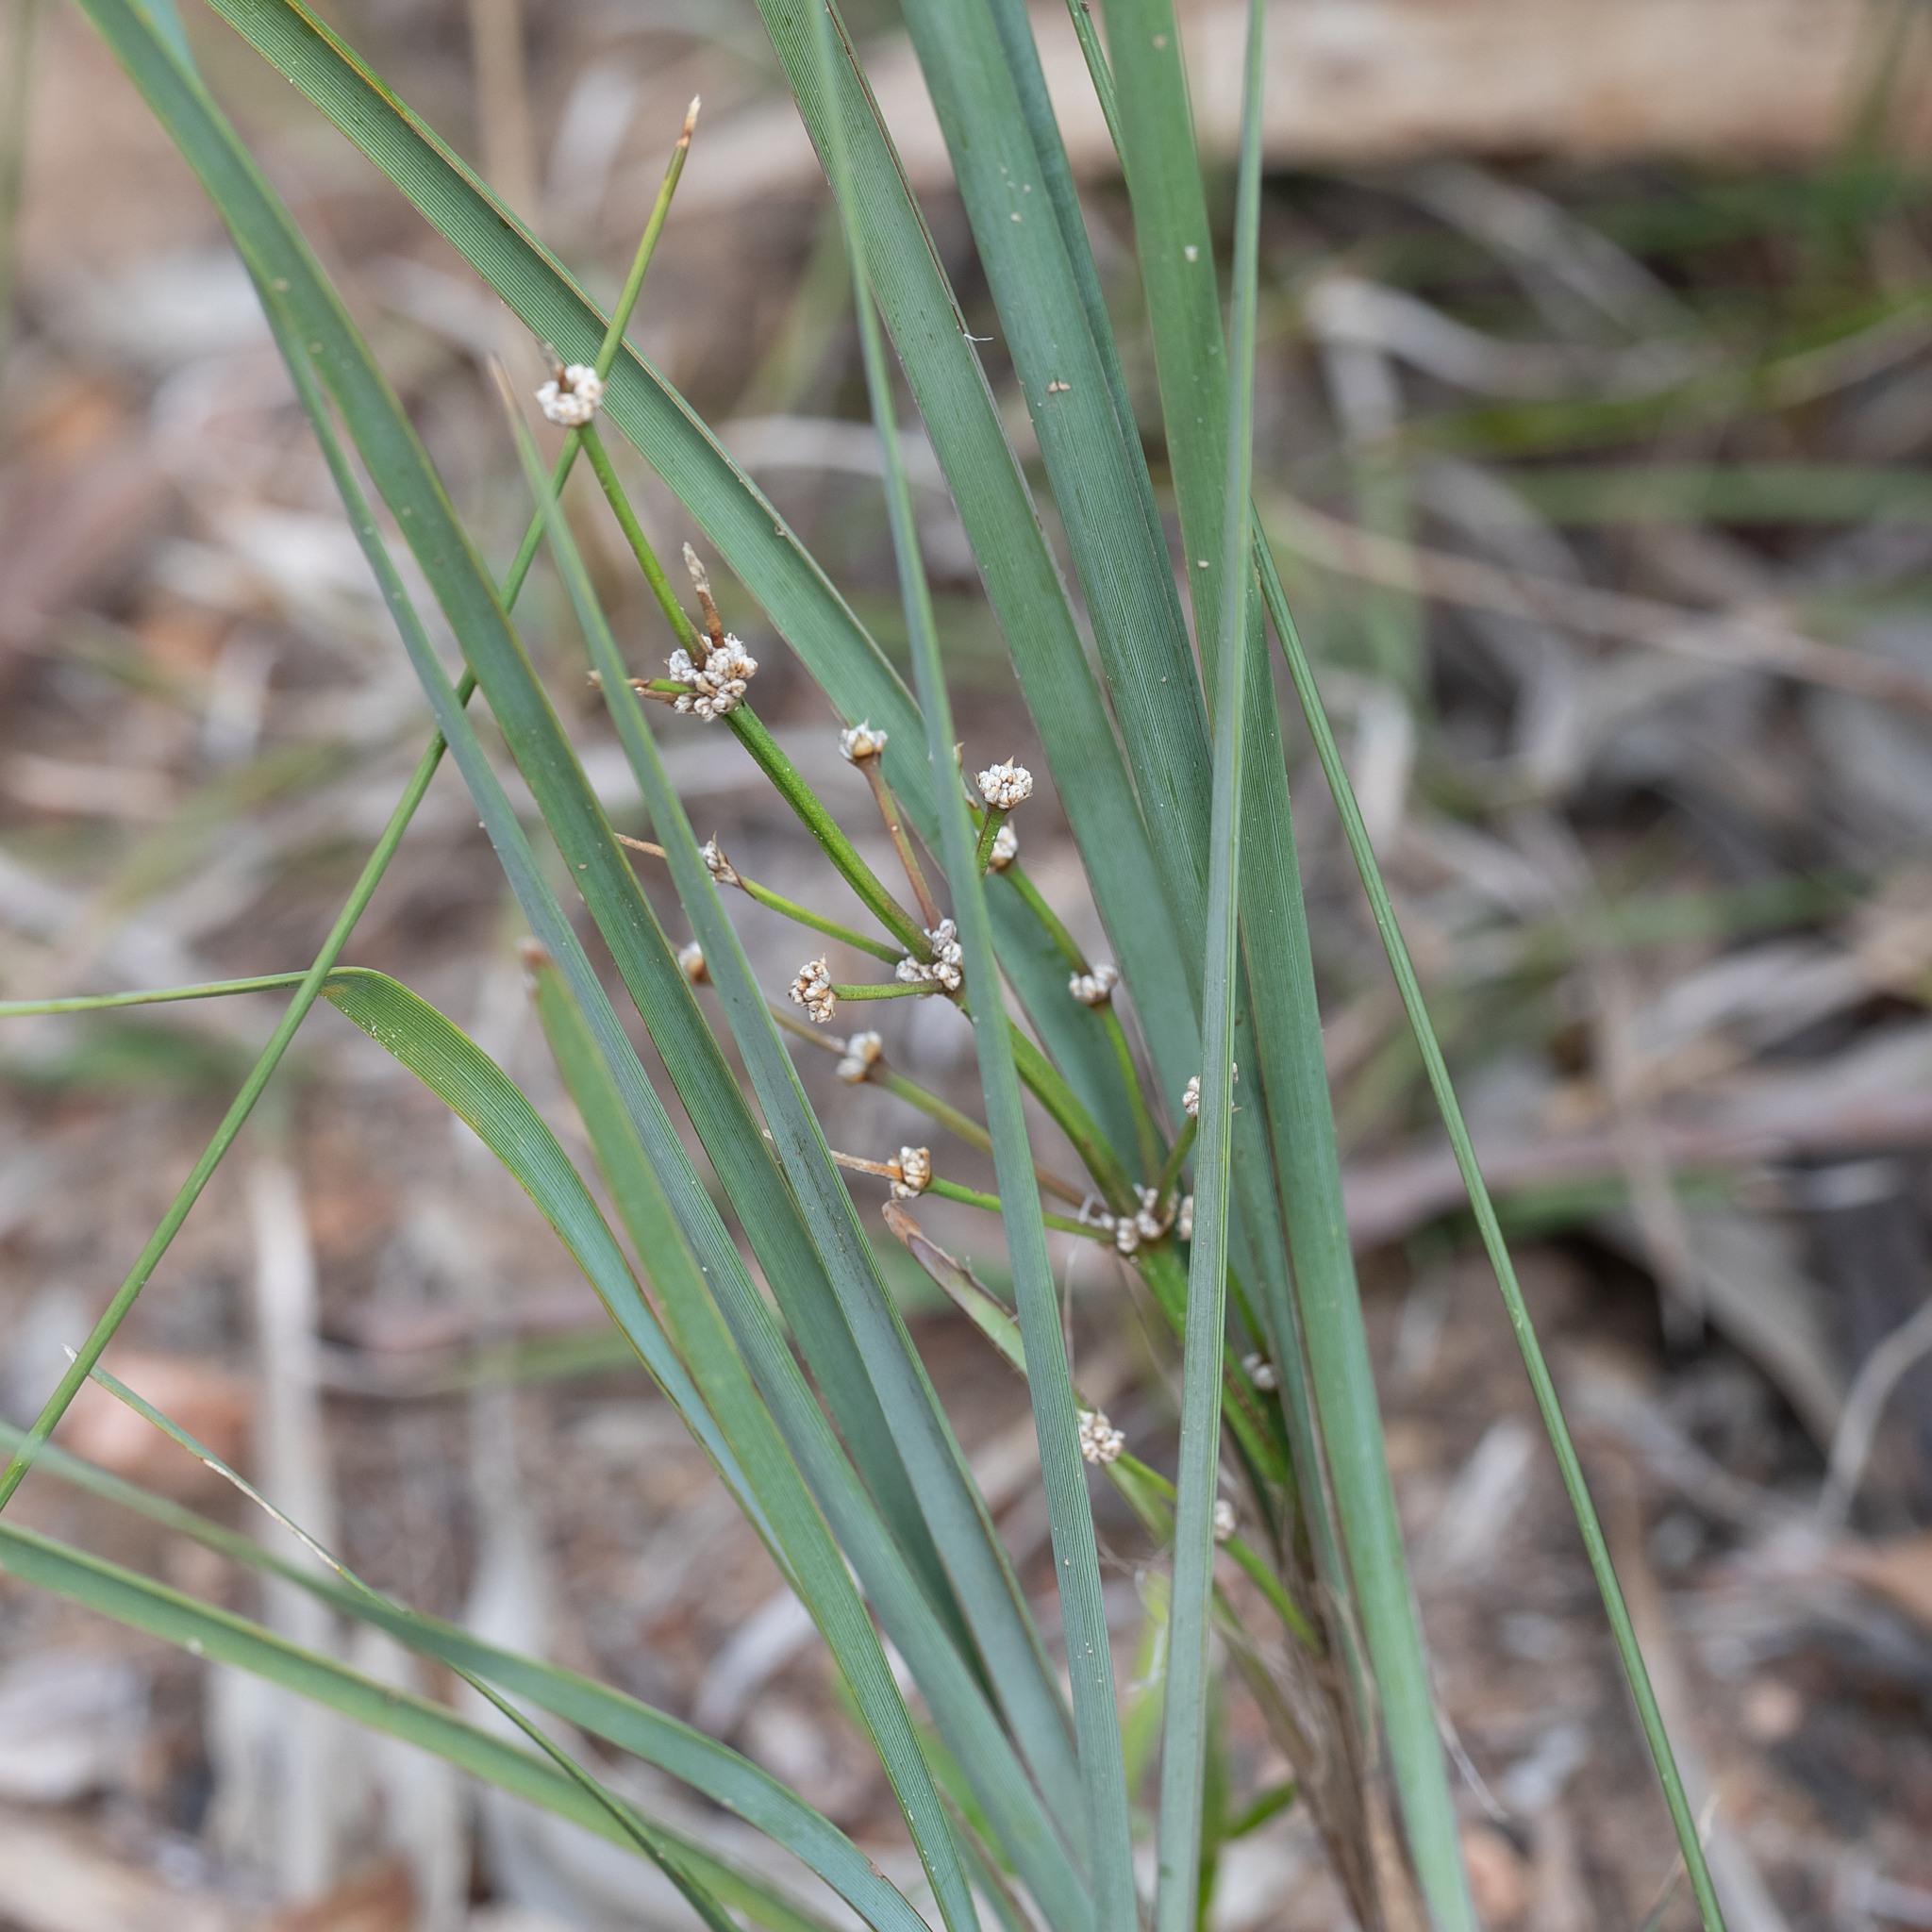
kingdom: Plantae
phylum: Tracheophyta
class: Liliopsida
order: Asparagales
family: Asparagaceae
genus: Lomandra
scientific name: Lomandra multiflora
